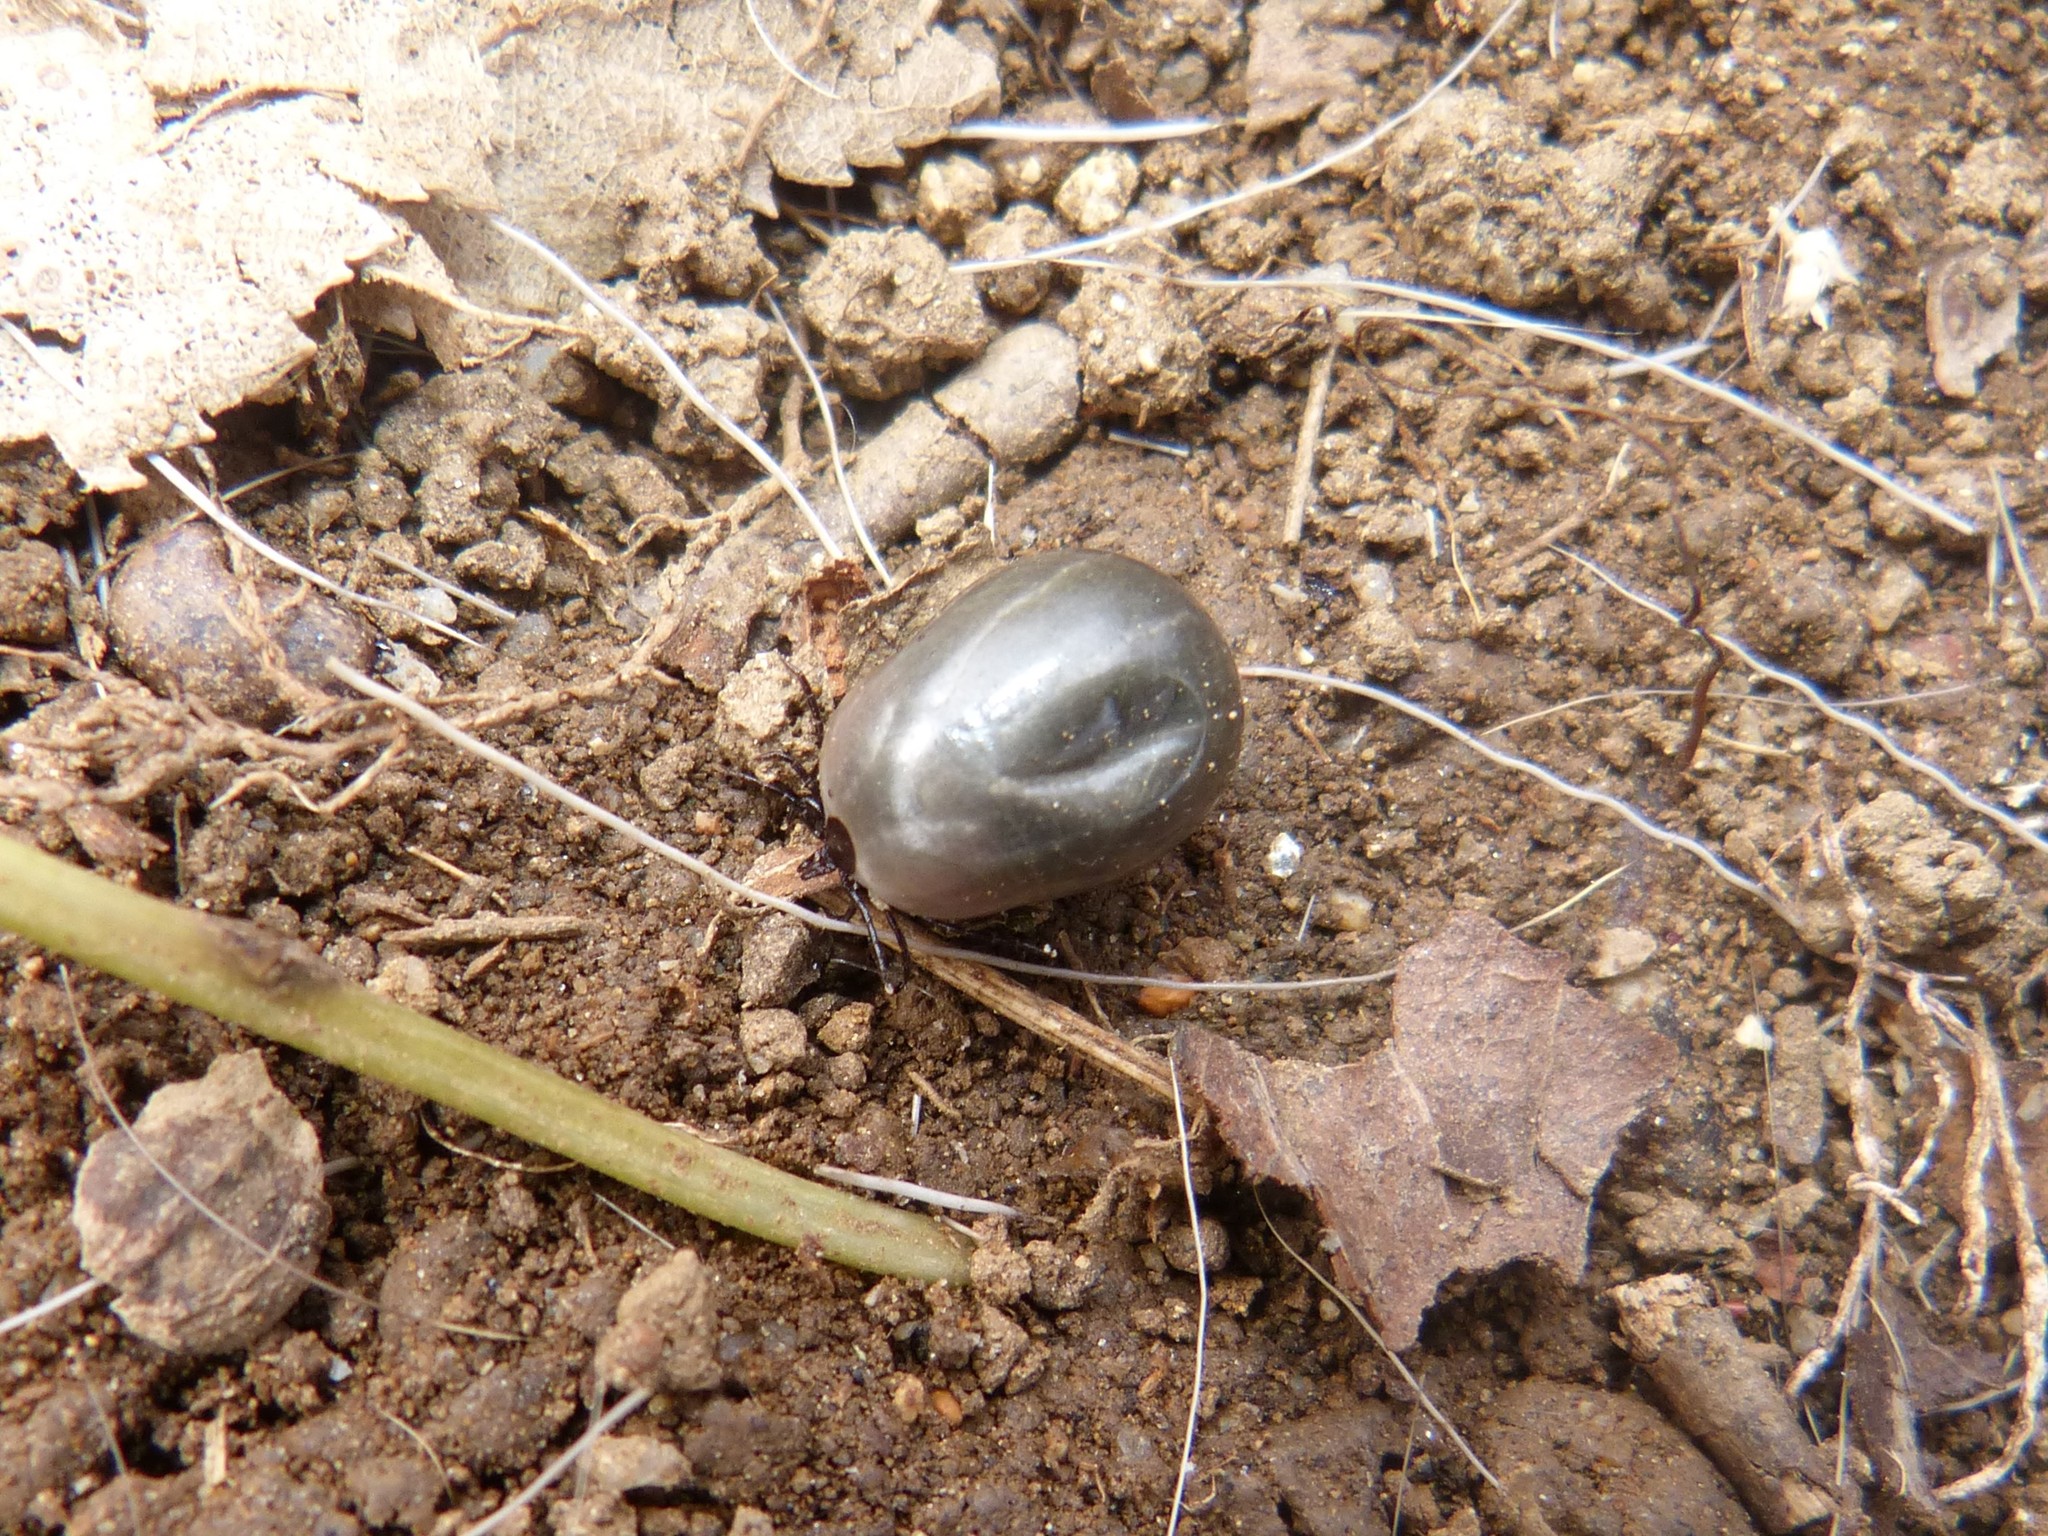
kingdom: Animalia
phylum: Arthropoda
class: Arachnida
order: Ixodida
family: Ixodidae
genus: Ixodes
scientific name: Ixodes ricinus
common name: Castor bean tick
